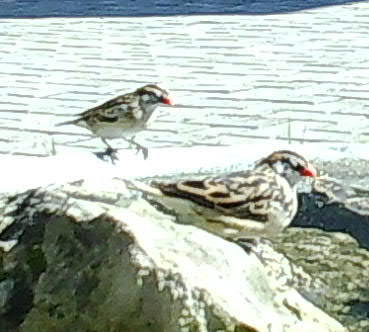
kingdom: Animalia
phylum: Chordata
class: Aves
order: Passeriformes
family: Viduidae
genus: Vidua
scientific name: Vidua macroura
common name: Pin-tailed whydah
